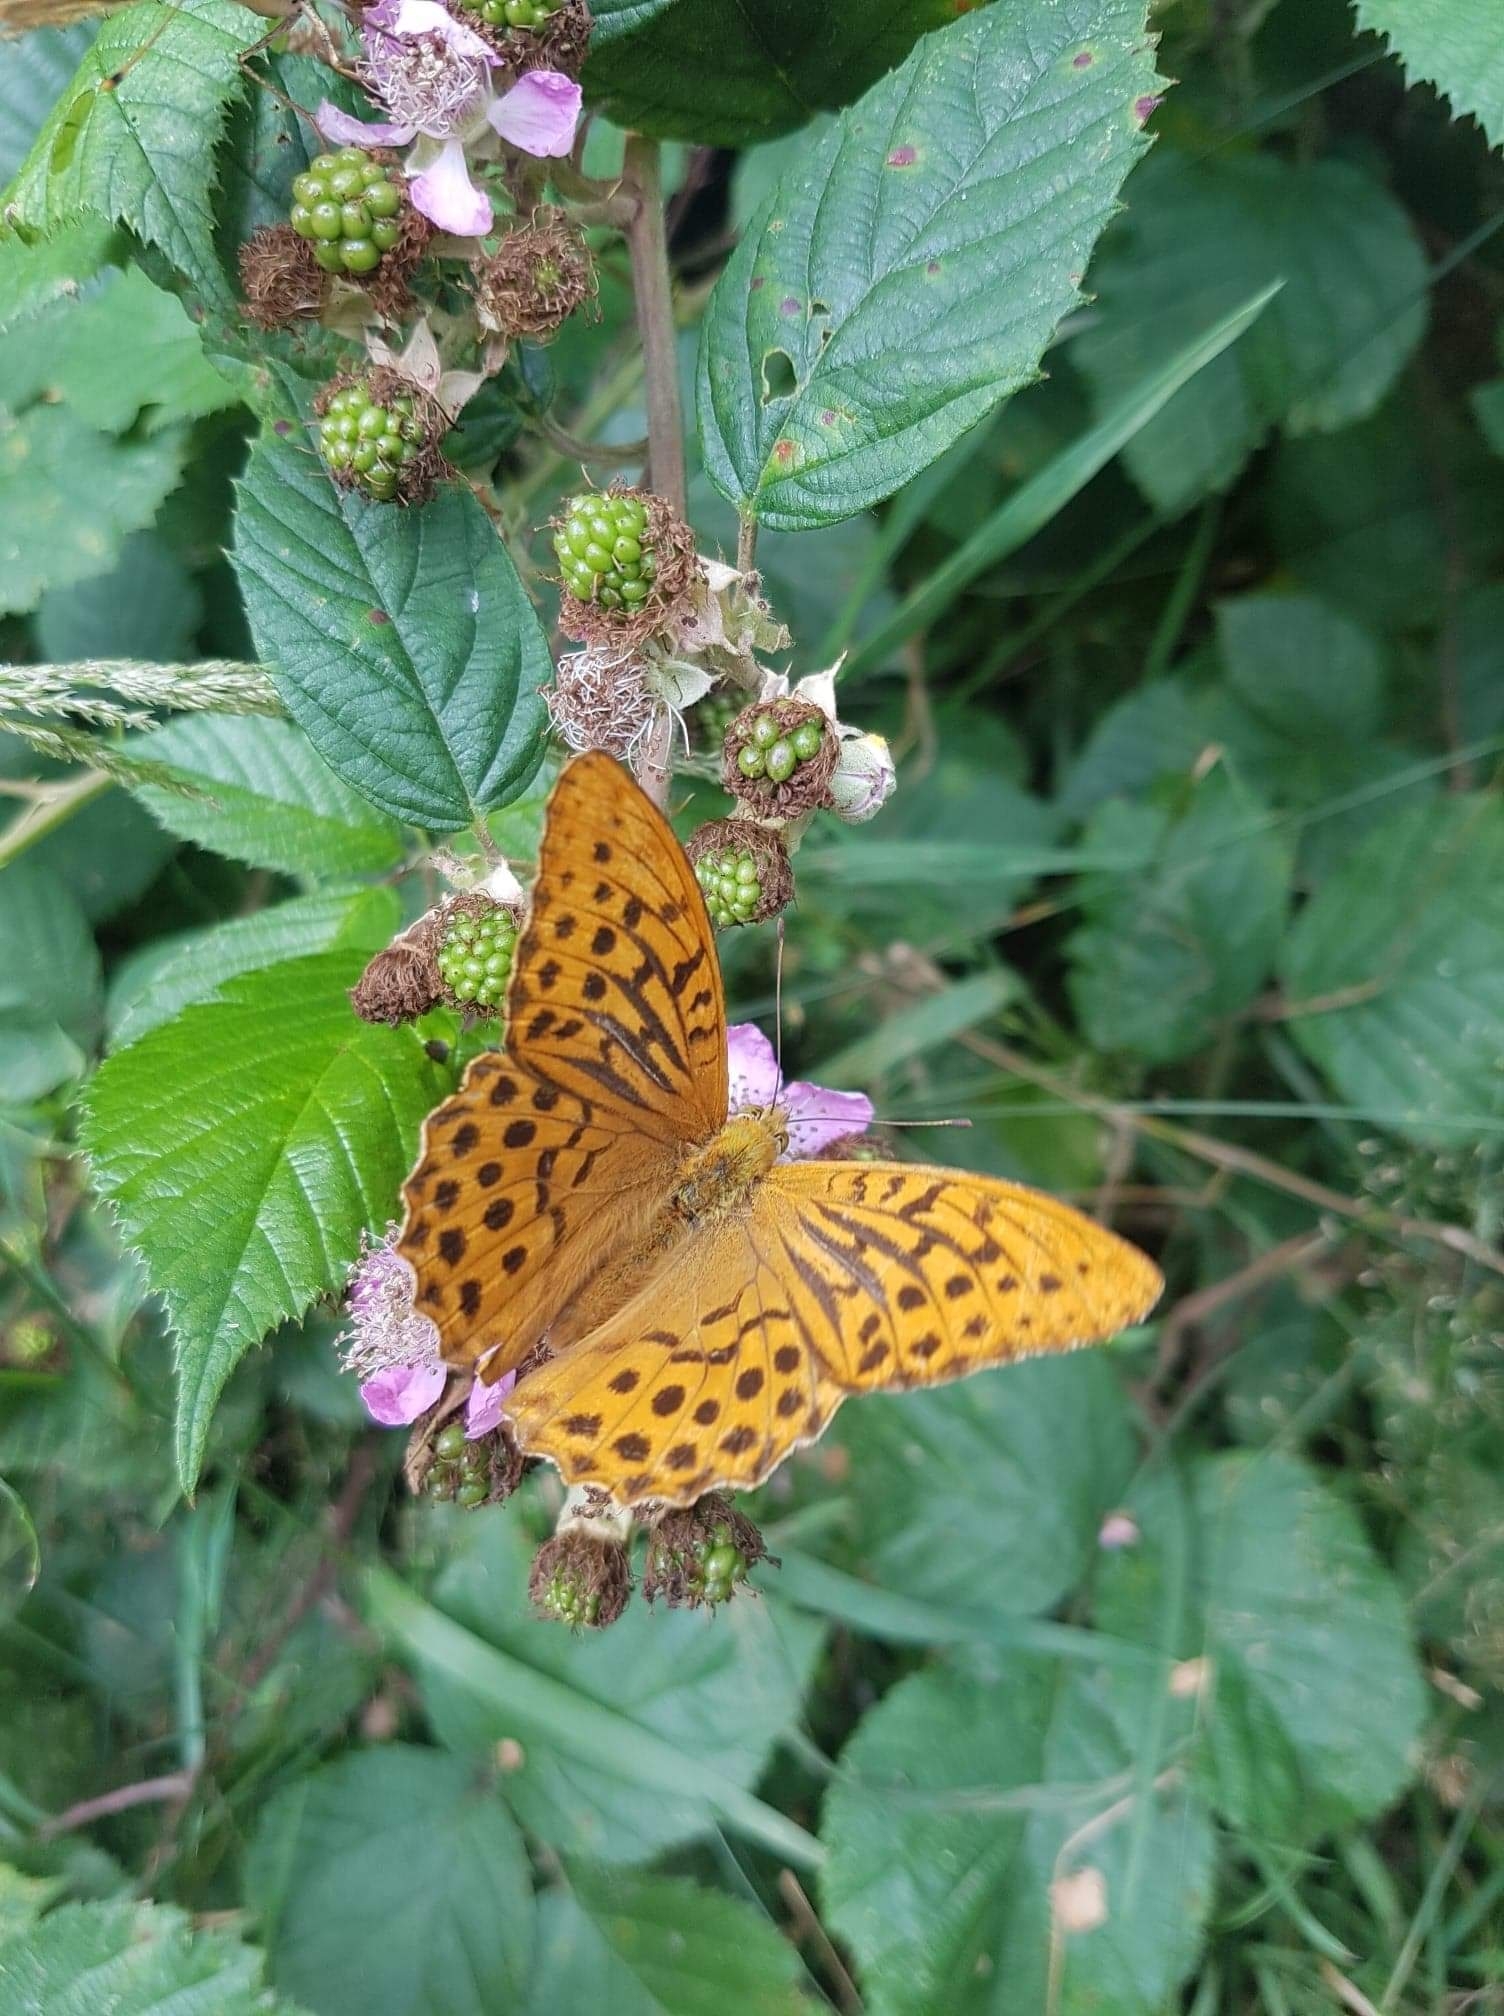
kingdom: Animalia
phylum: Arthropoda
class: Insecta
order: Lepidoptera
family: Nymphalidae
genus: Argynnis
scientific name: Argynnis paphia
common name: Silver-washed fritillary
